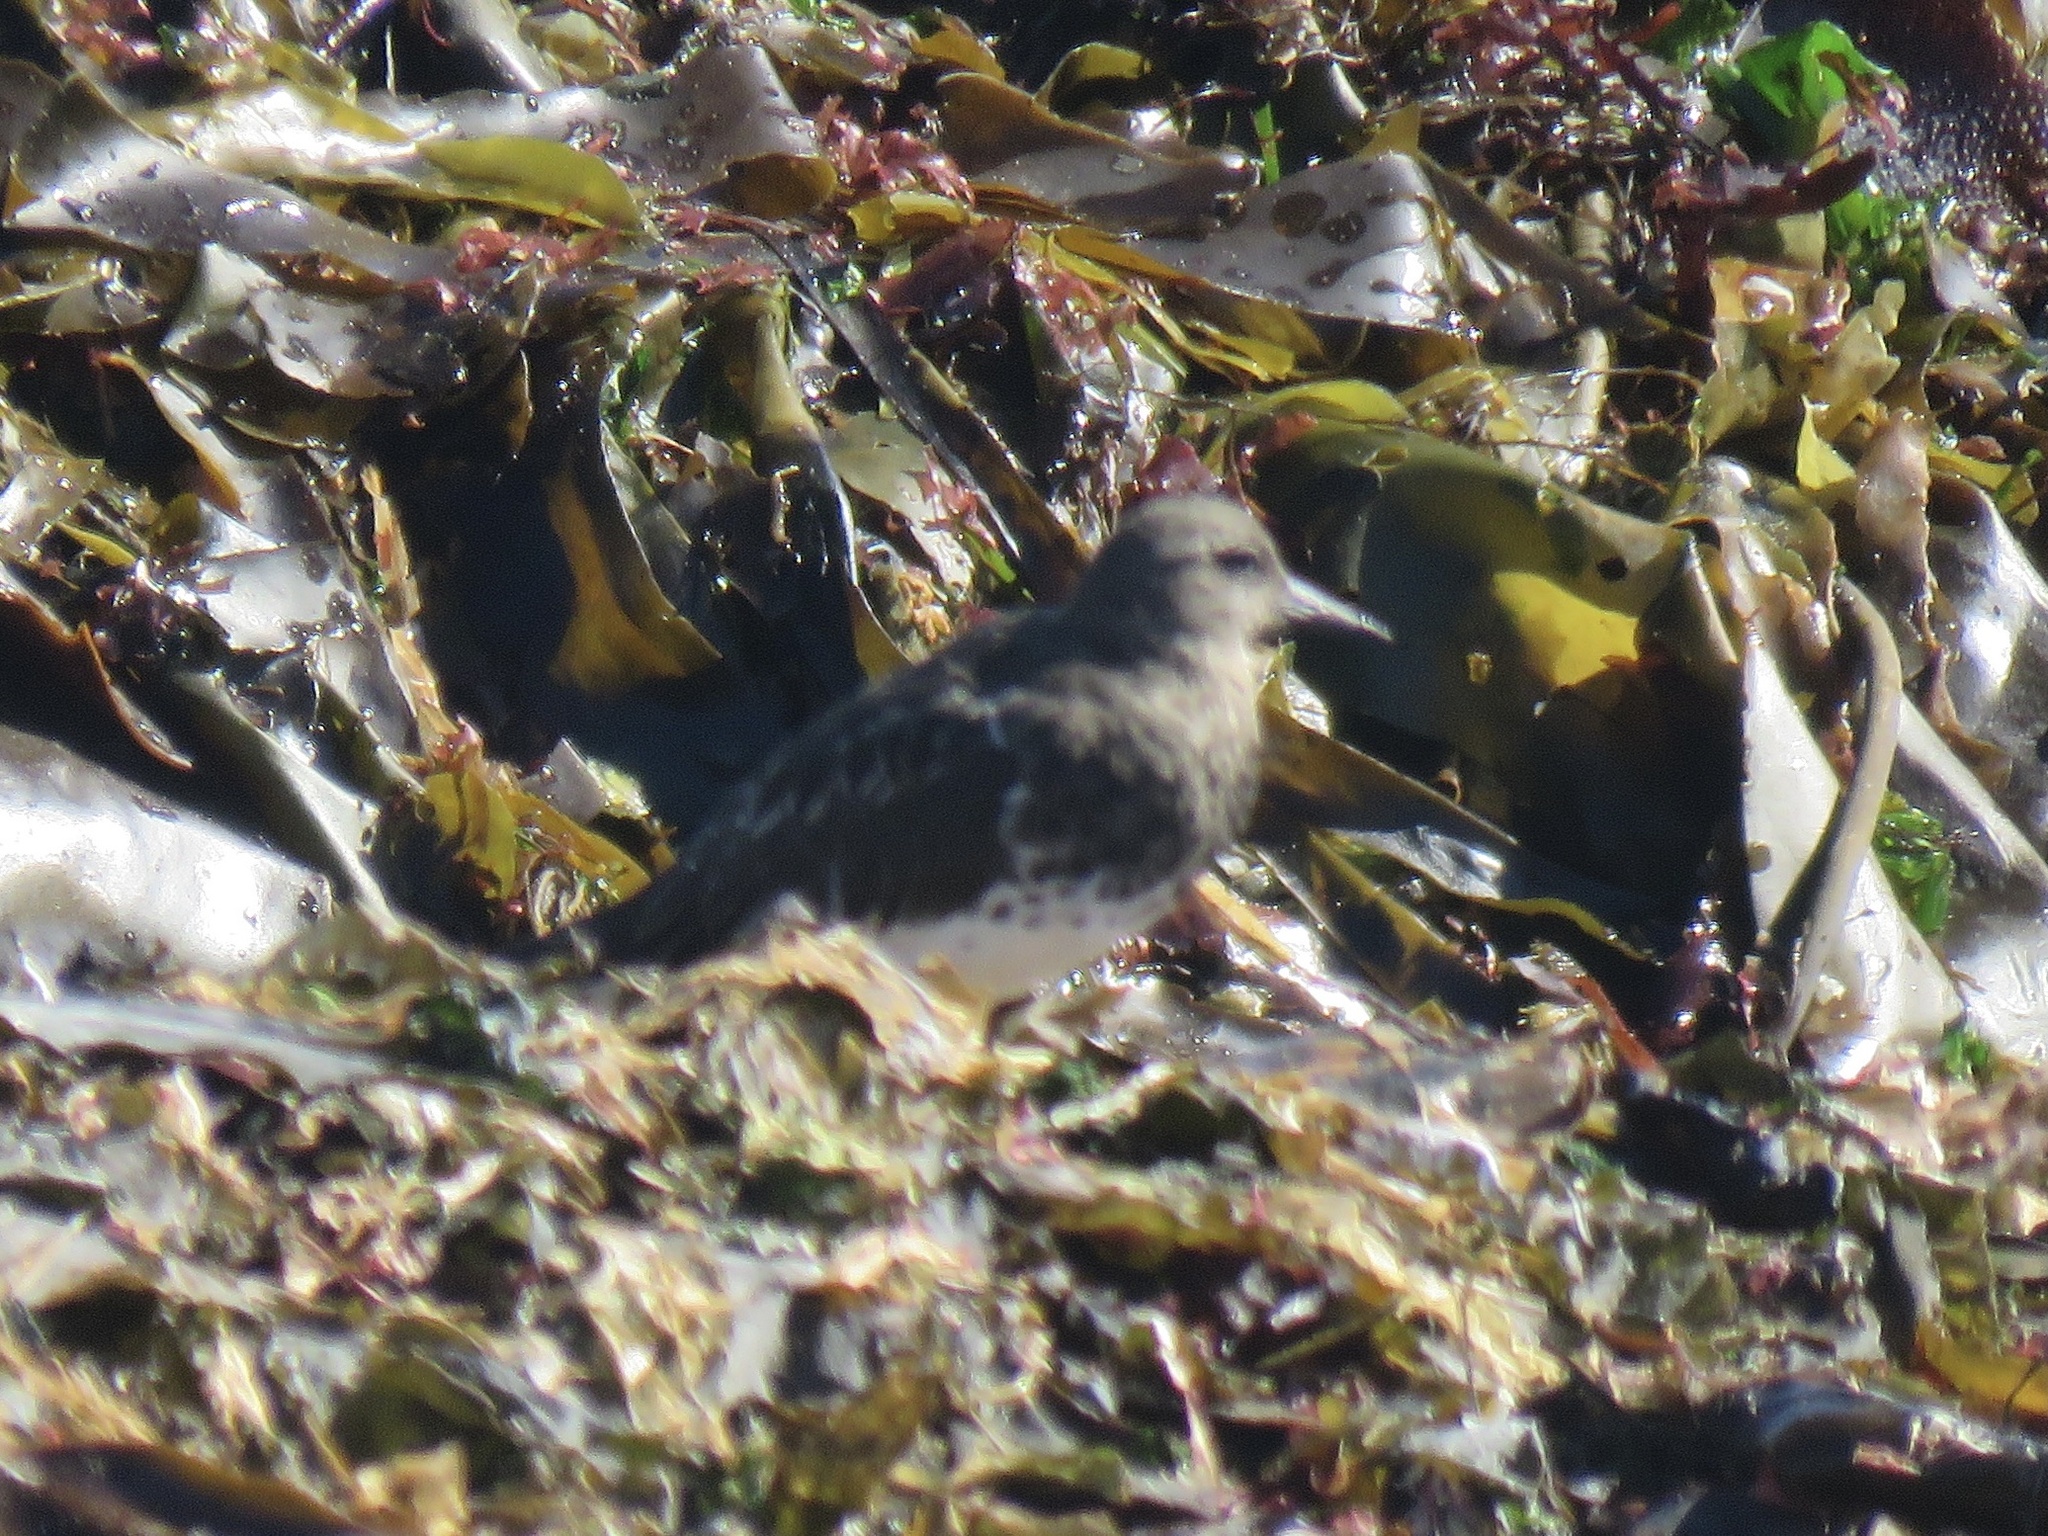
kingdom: Animalia
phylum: Chordata
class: Aves
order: Charadriiformes
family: Scolopacidae
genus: Arenaria
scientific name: Arenaria melanocephala
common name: Black turnstone
